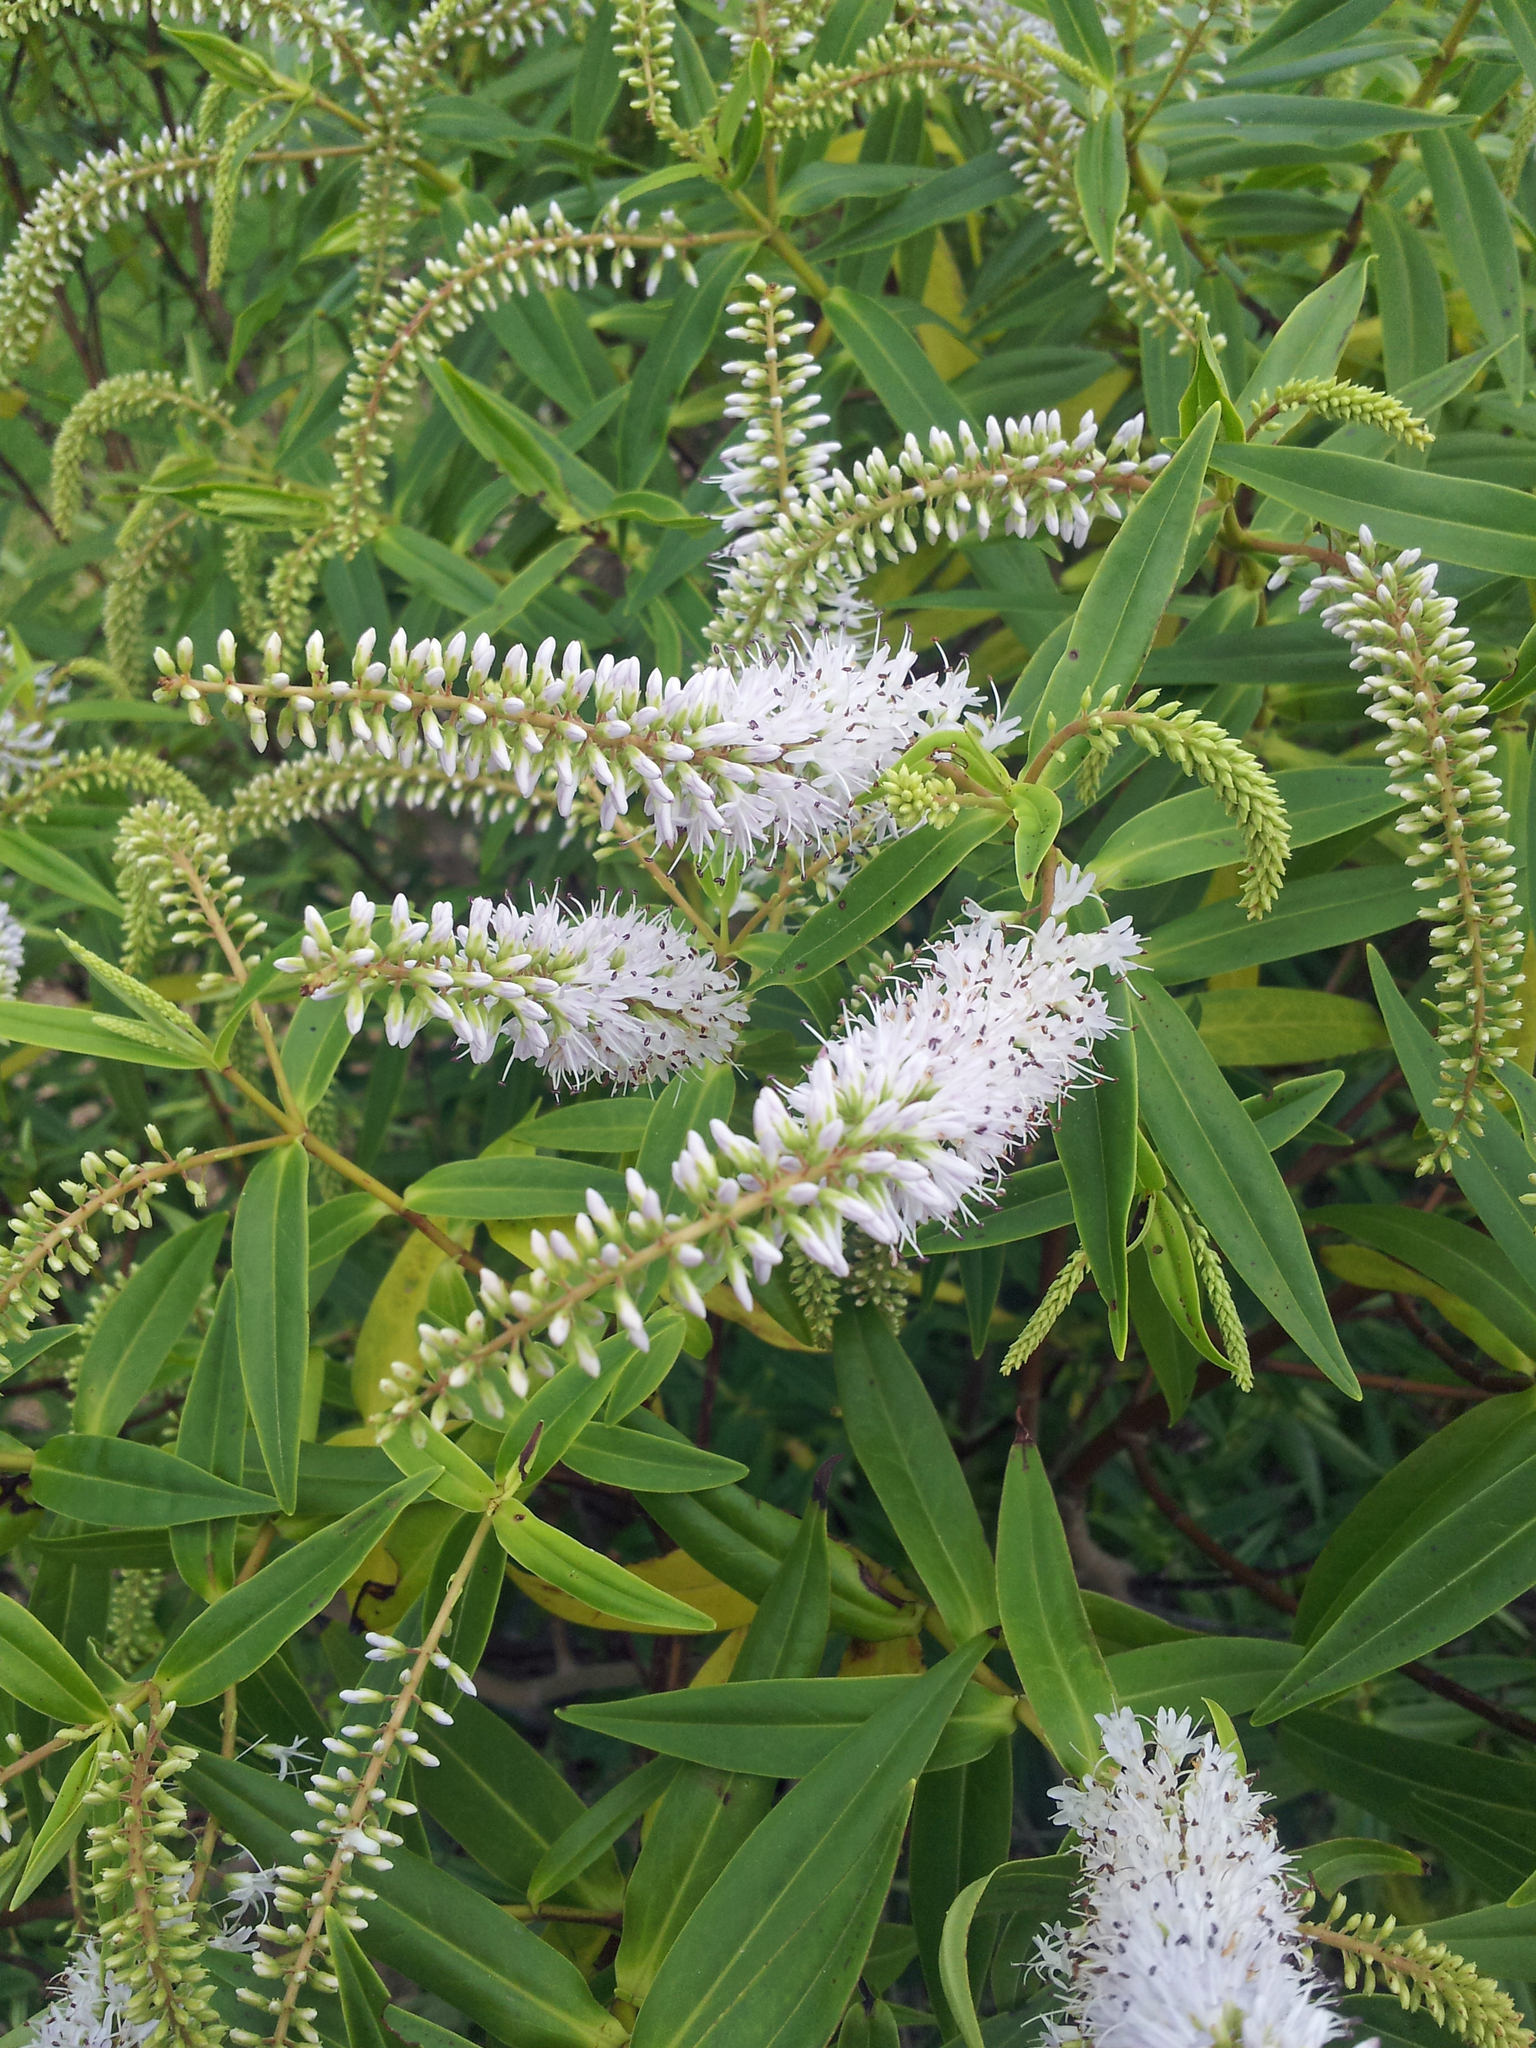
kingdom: Plantae
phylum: Tracheophyta
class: Magnoliopsida
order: Lamiales
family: Plantaginaceae
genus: Veronica
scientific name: Veronica stricta
